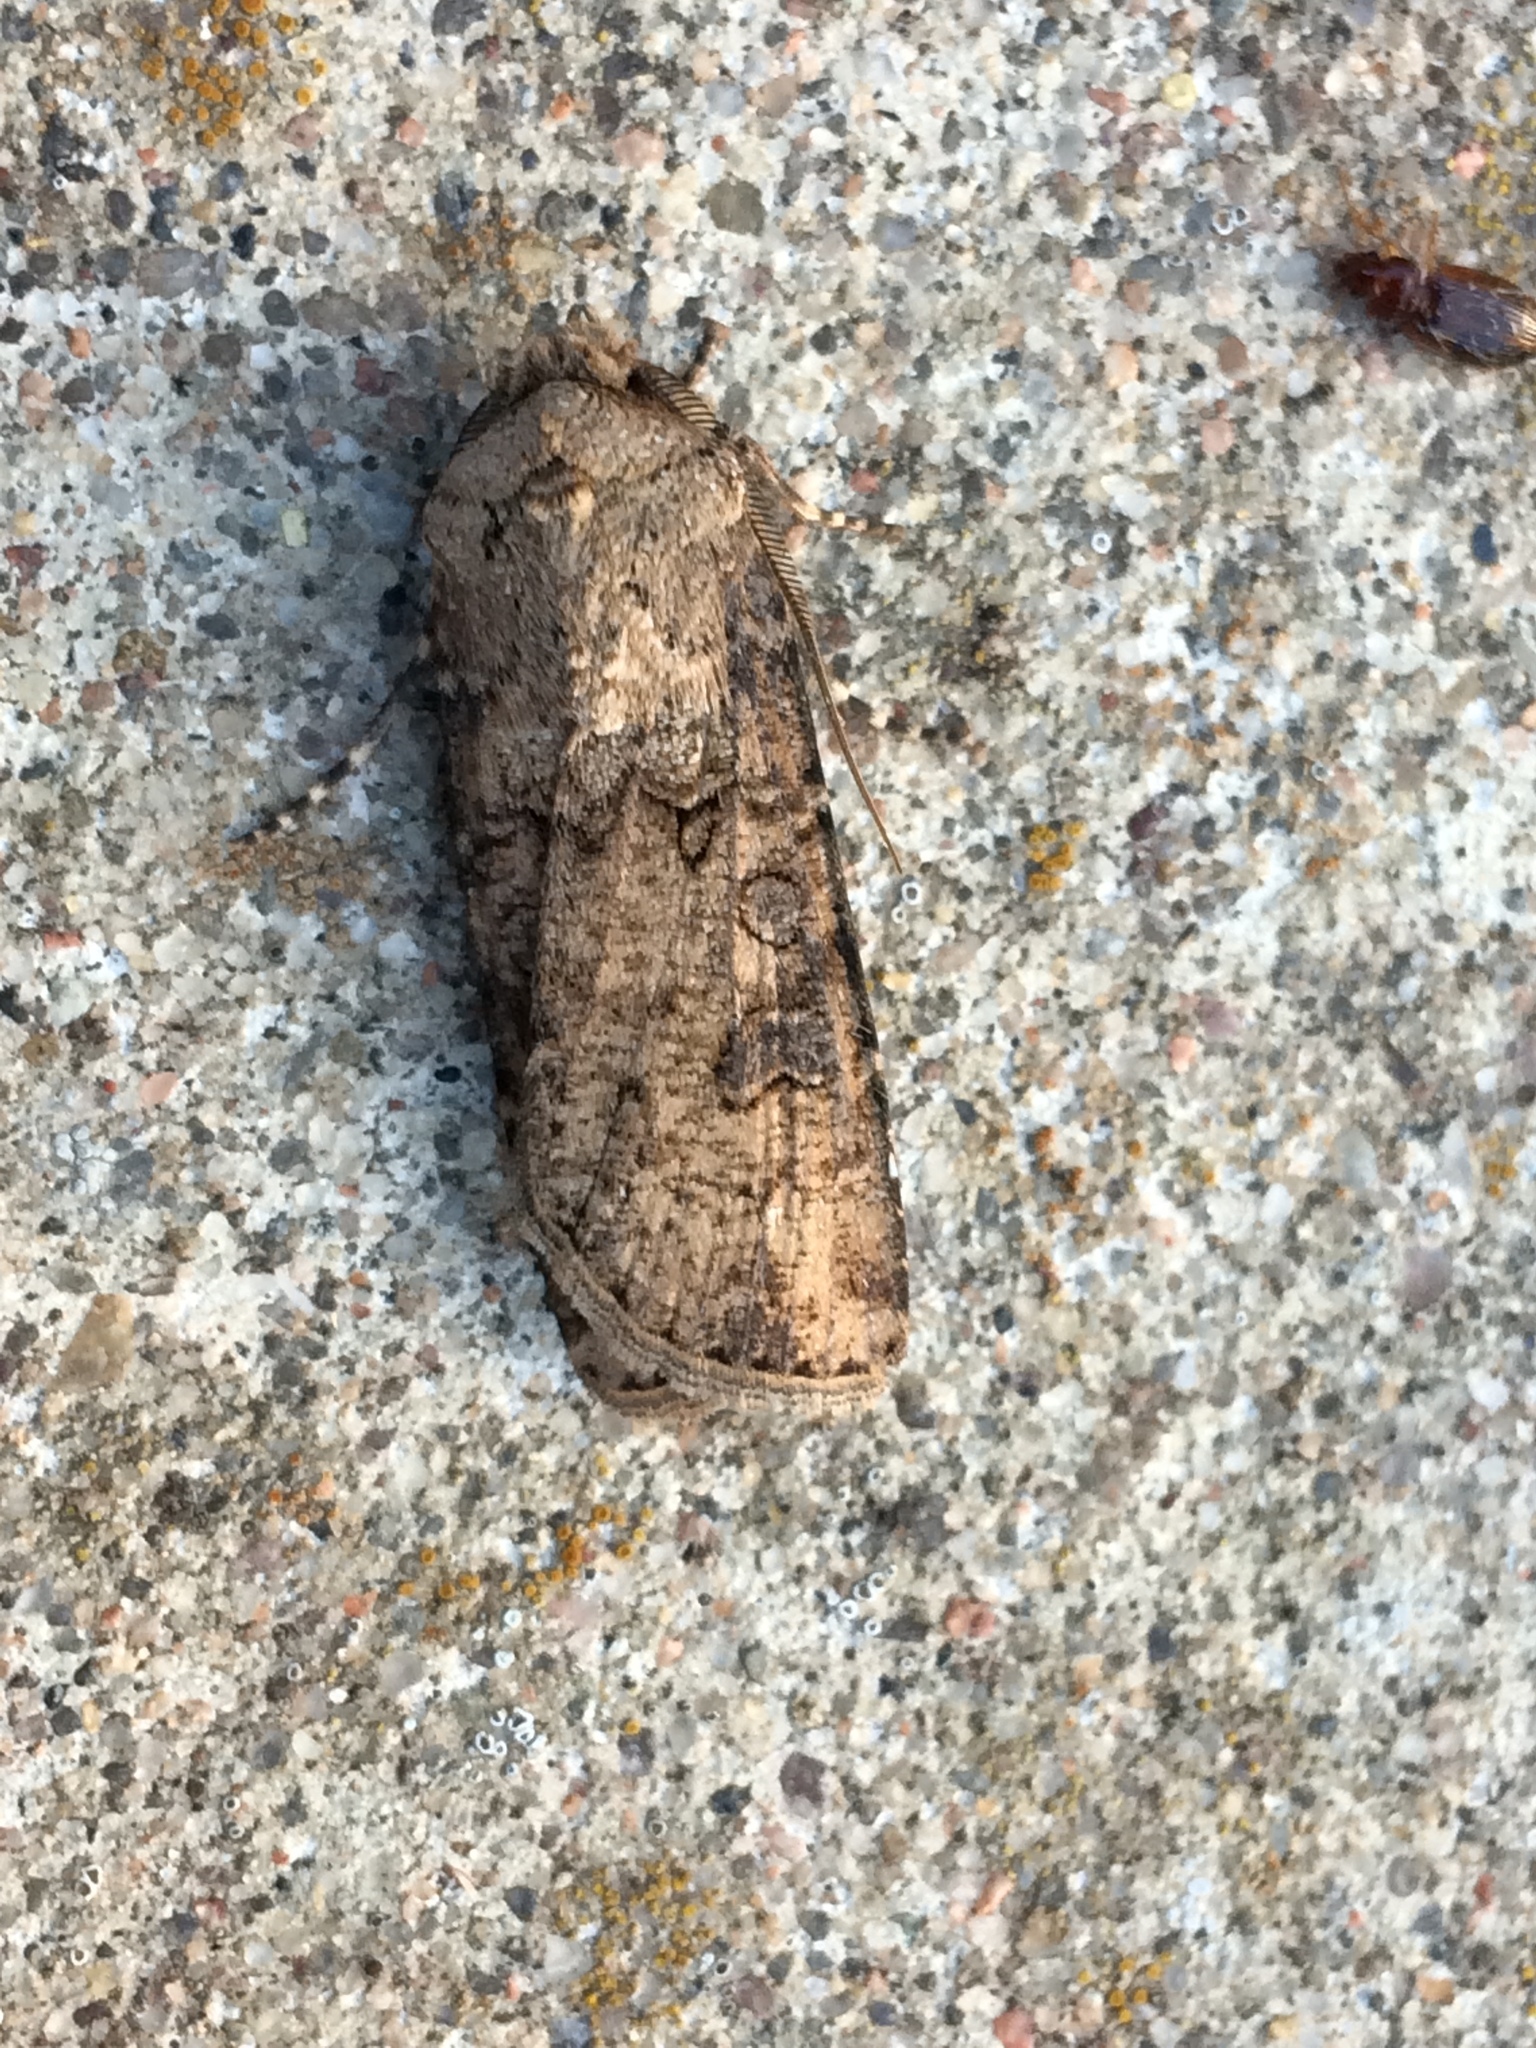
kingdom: Animalia
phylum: Arthropoda
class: Insecta
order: Lepidoptera
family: Noctuidae
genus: Agrotis
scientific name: Agrotis segetum
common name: Turnip moth
